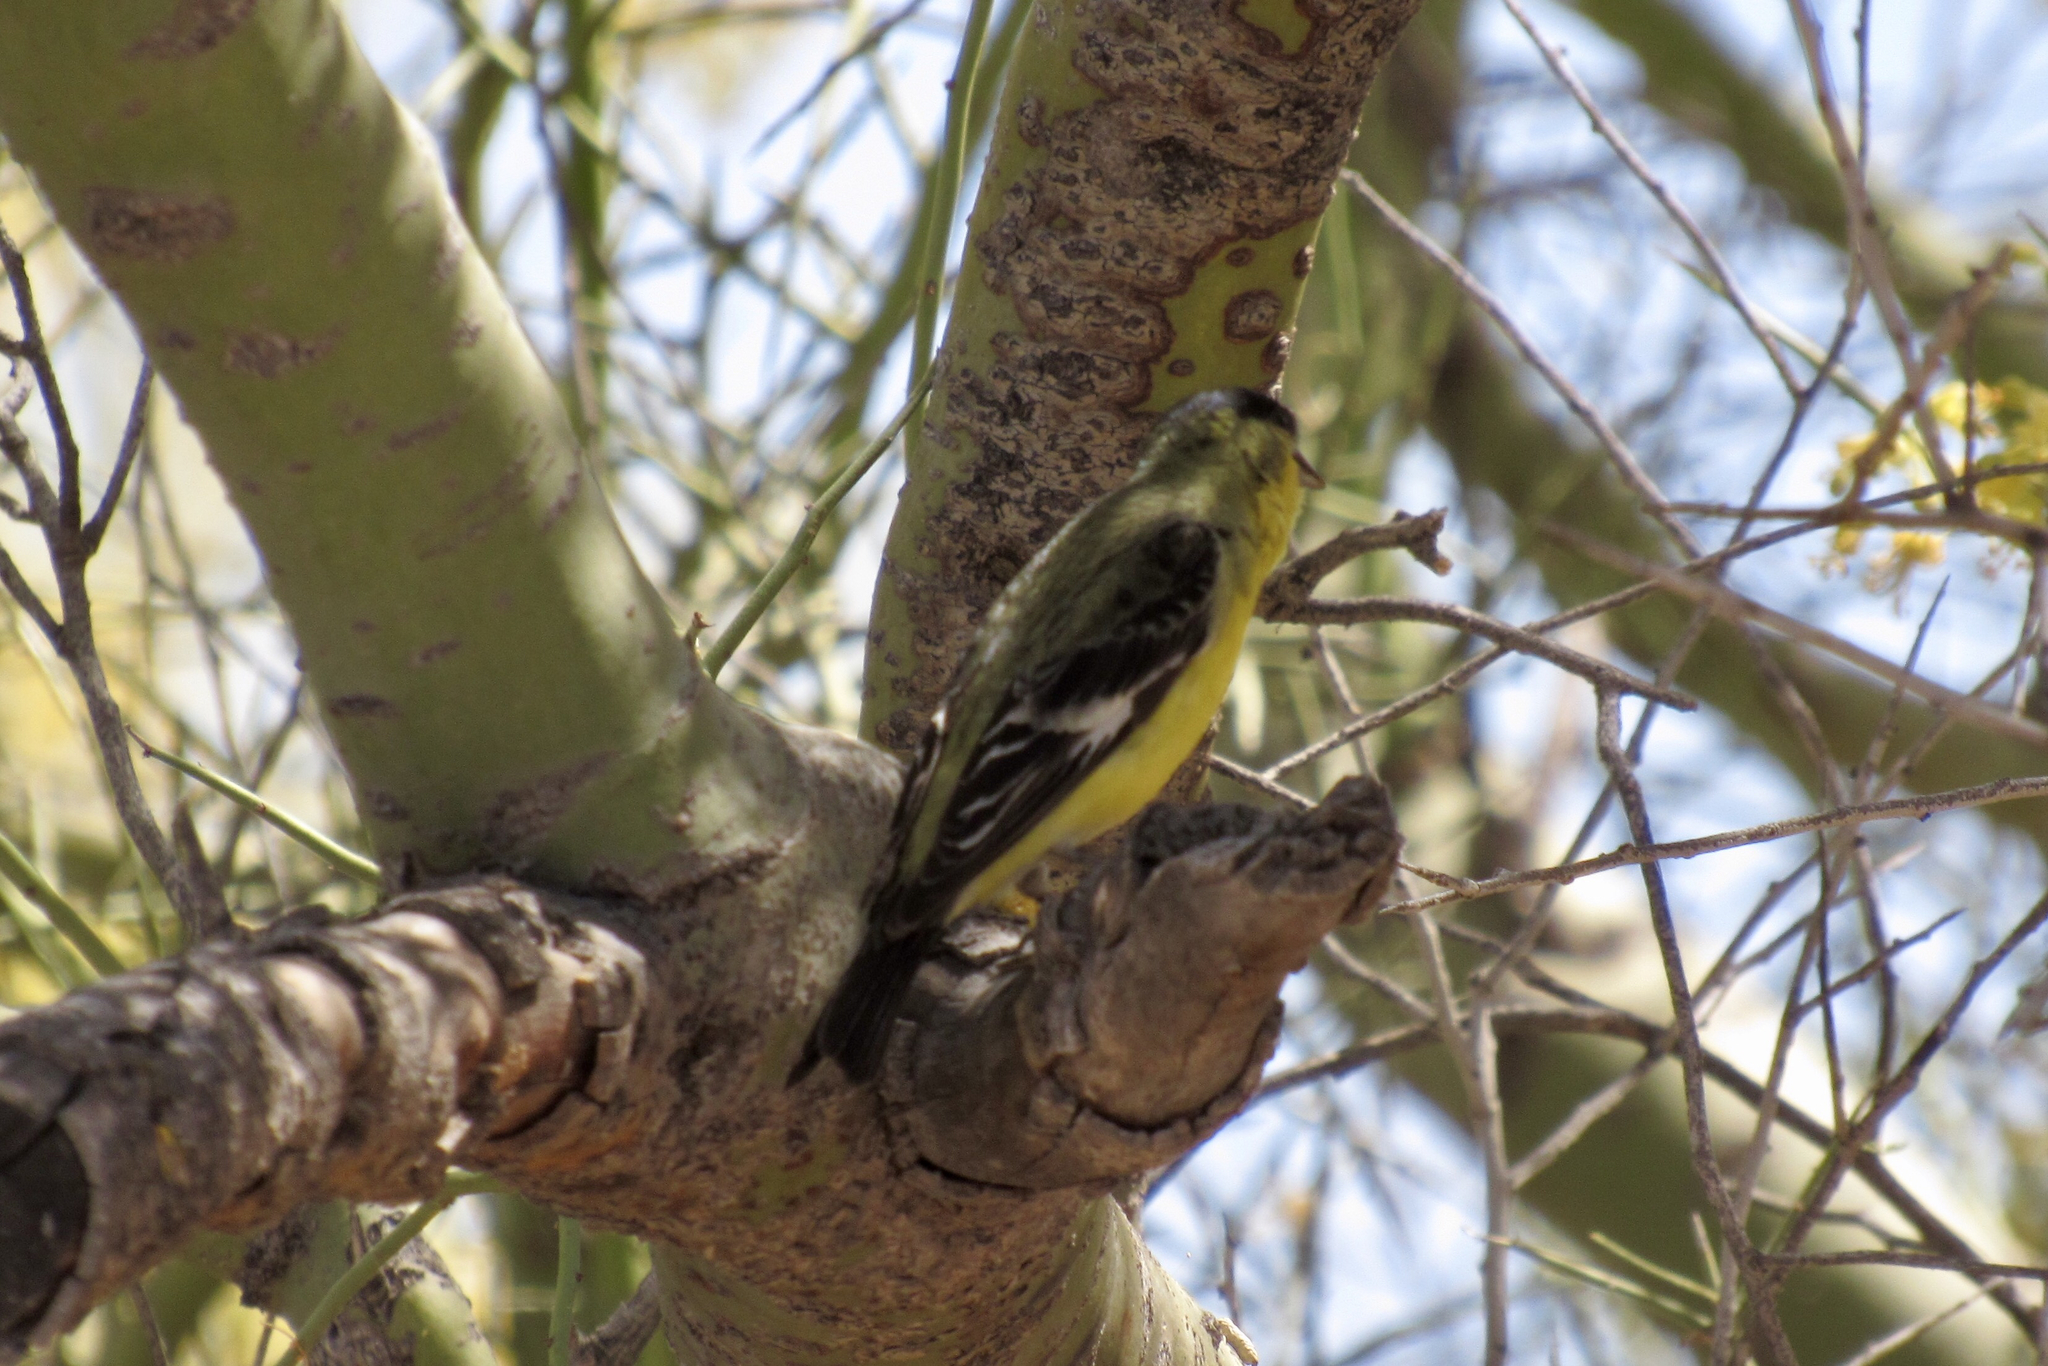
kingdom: Animalia
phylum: Chordata
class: Aves
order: Passeriformes
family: Fringillidae
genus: Spinus
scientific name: Spinus psaltria
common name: Lesser goldfinch
